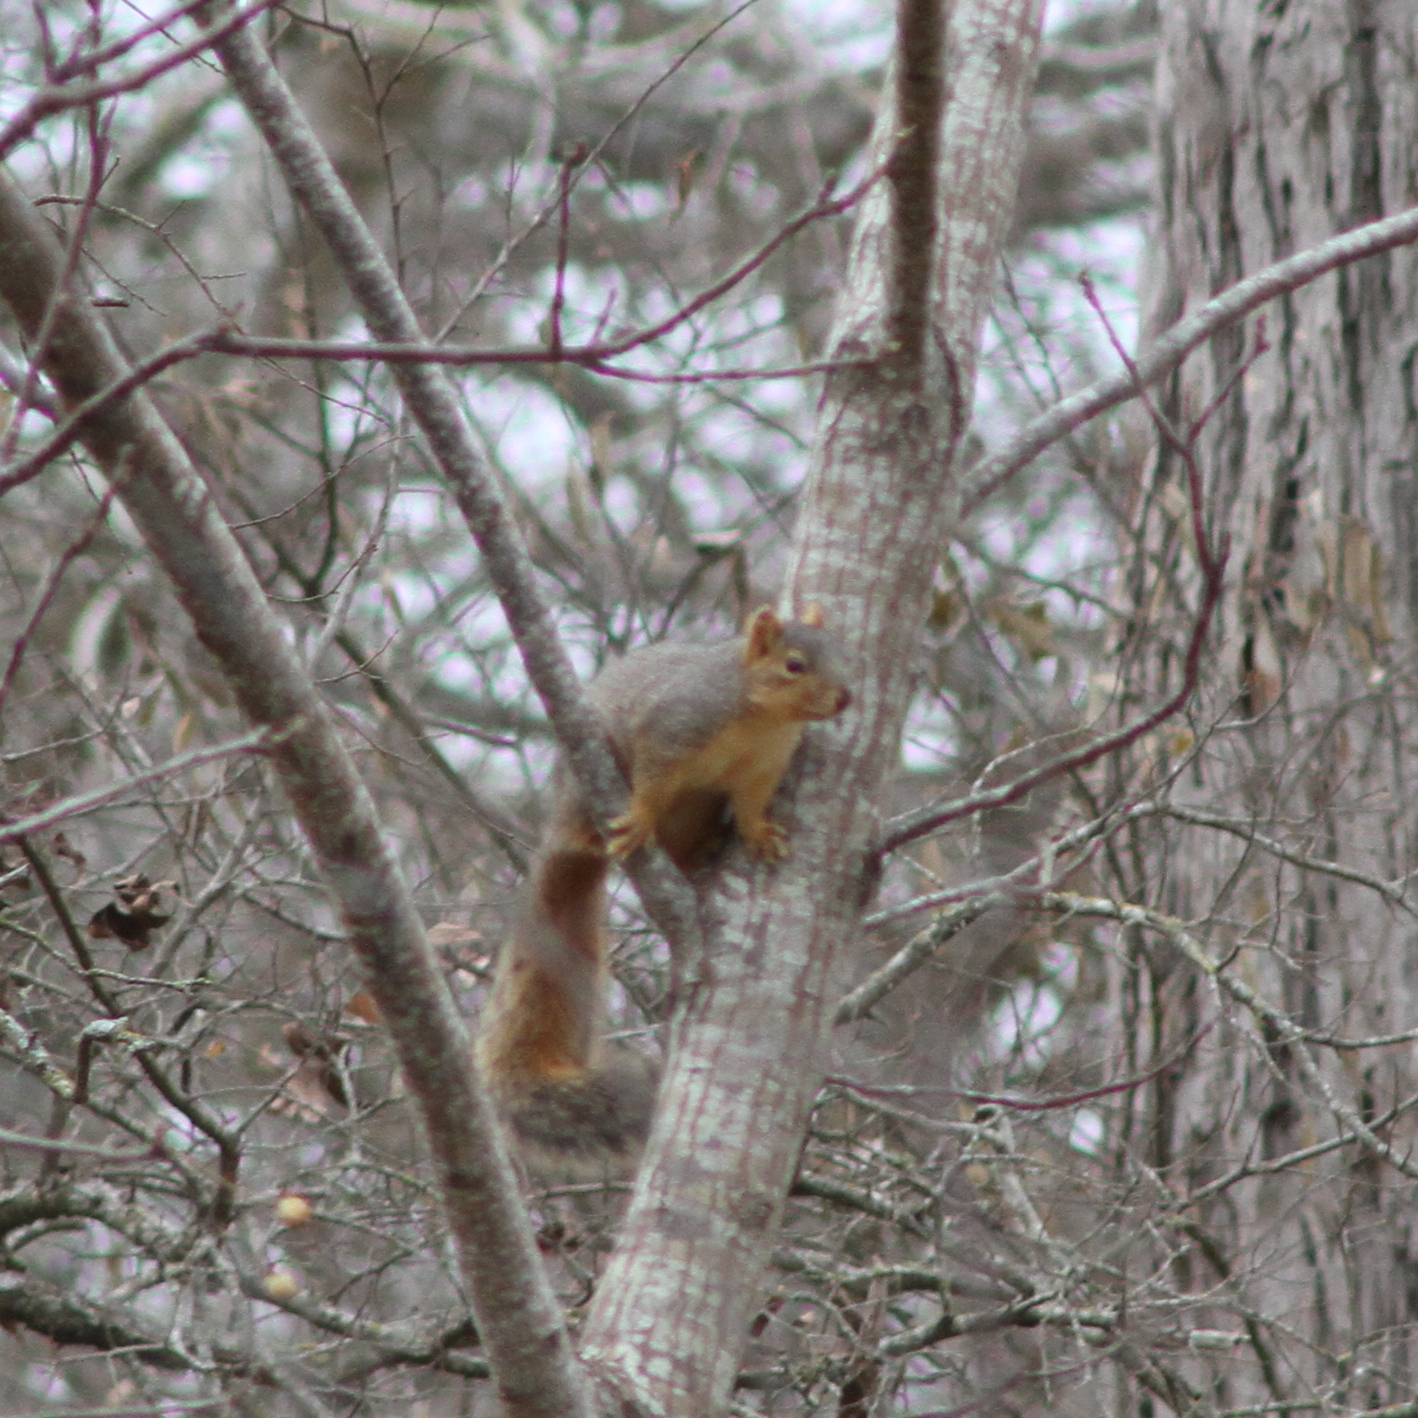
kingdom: Animalia
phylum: Chordata
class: Mammalia
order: Rodentia
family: Sciuridae
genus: Sciurus
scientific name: Sciurus niger
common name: Fox squirrel
